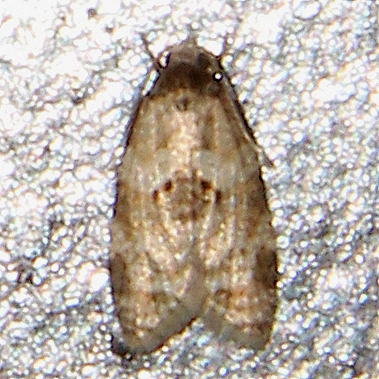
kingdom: Animalia
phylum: Arthropoda
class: Insecta
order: Lepidoptera
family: Tortricidae
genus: Dipterina
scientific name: Dipterina imbriferana
